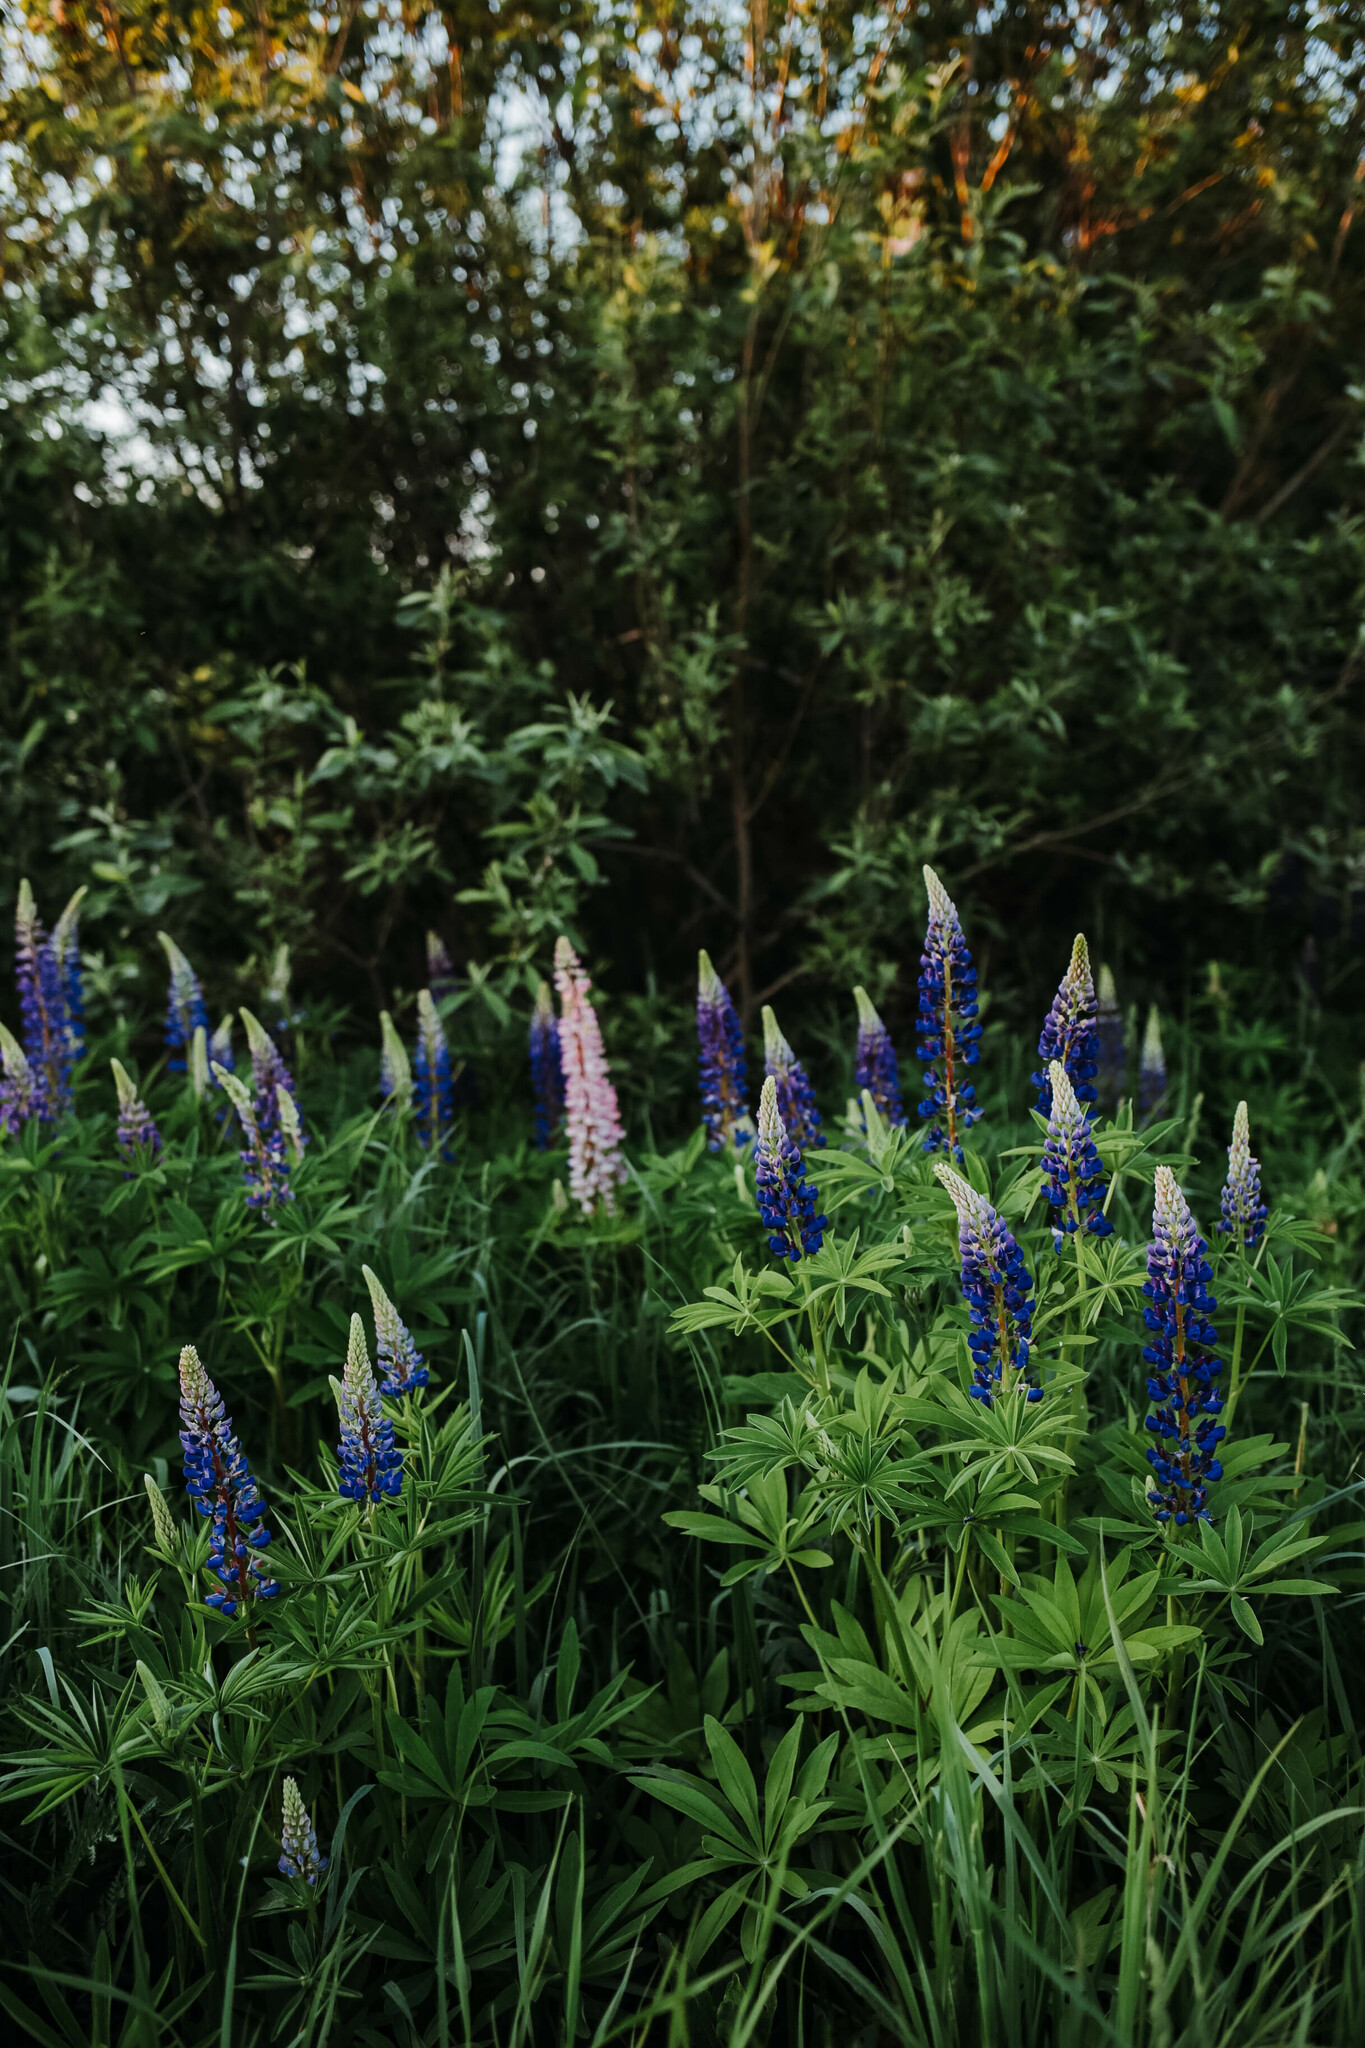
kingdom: Plantae
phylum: Tracheophyta
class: Magnoliopsida
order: Fabales
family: Fabaceae
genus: Lupinus
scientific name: Lupinus polyphyllus
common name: Garden lupin
